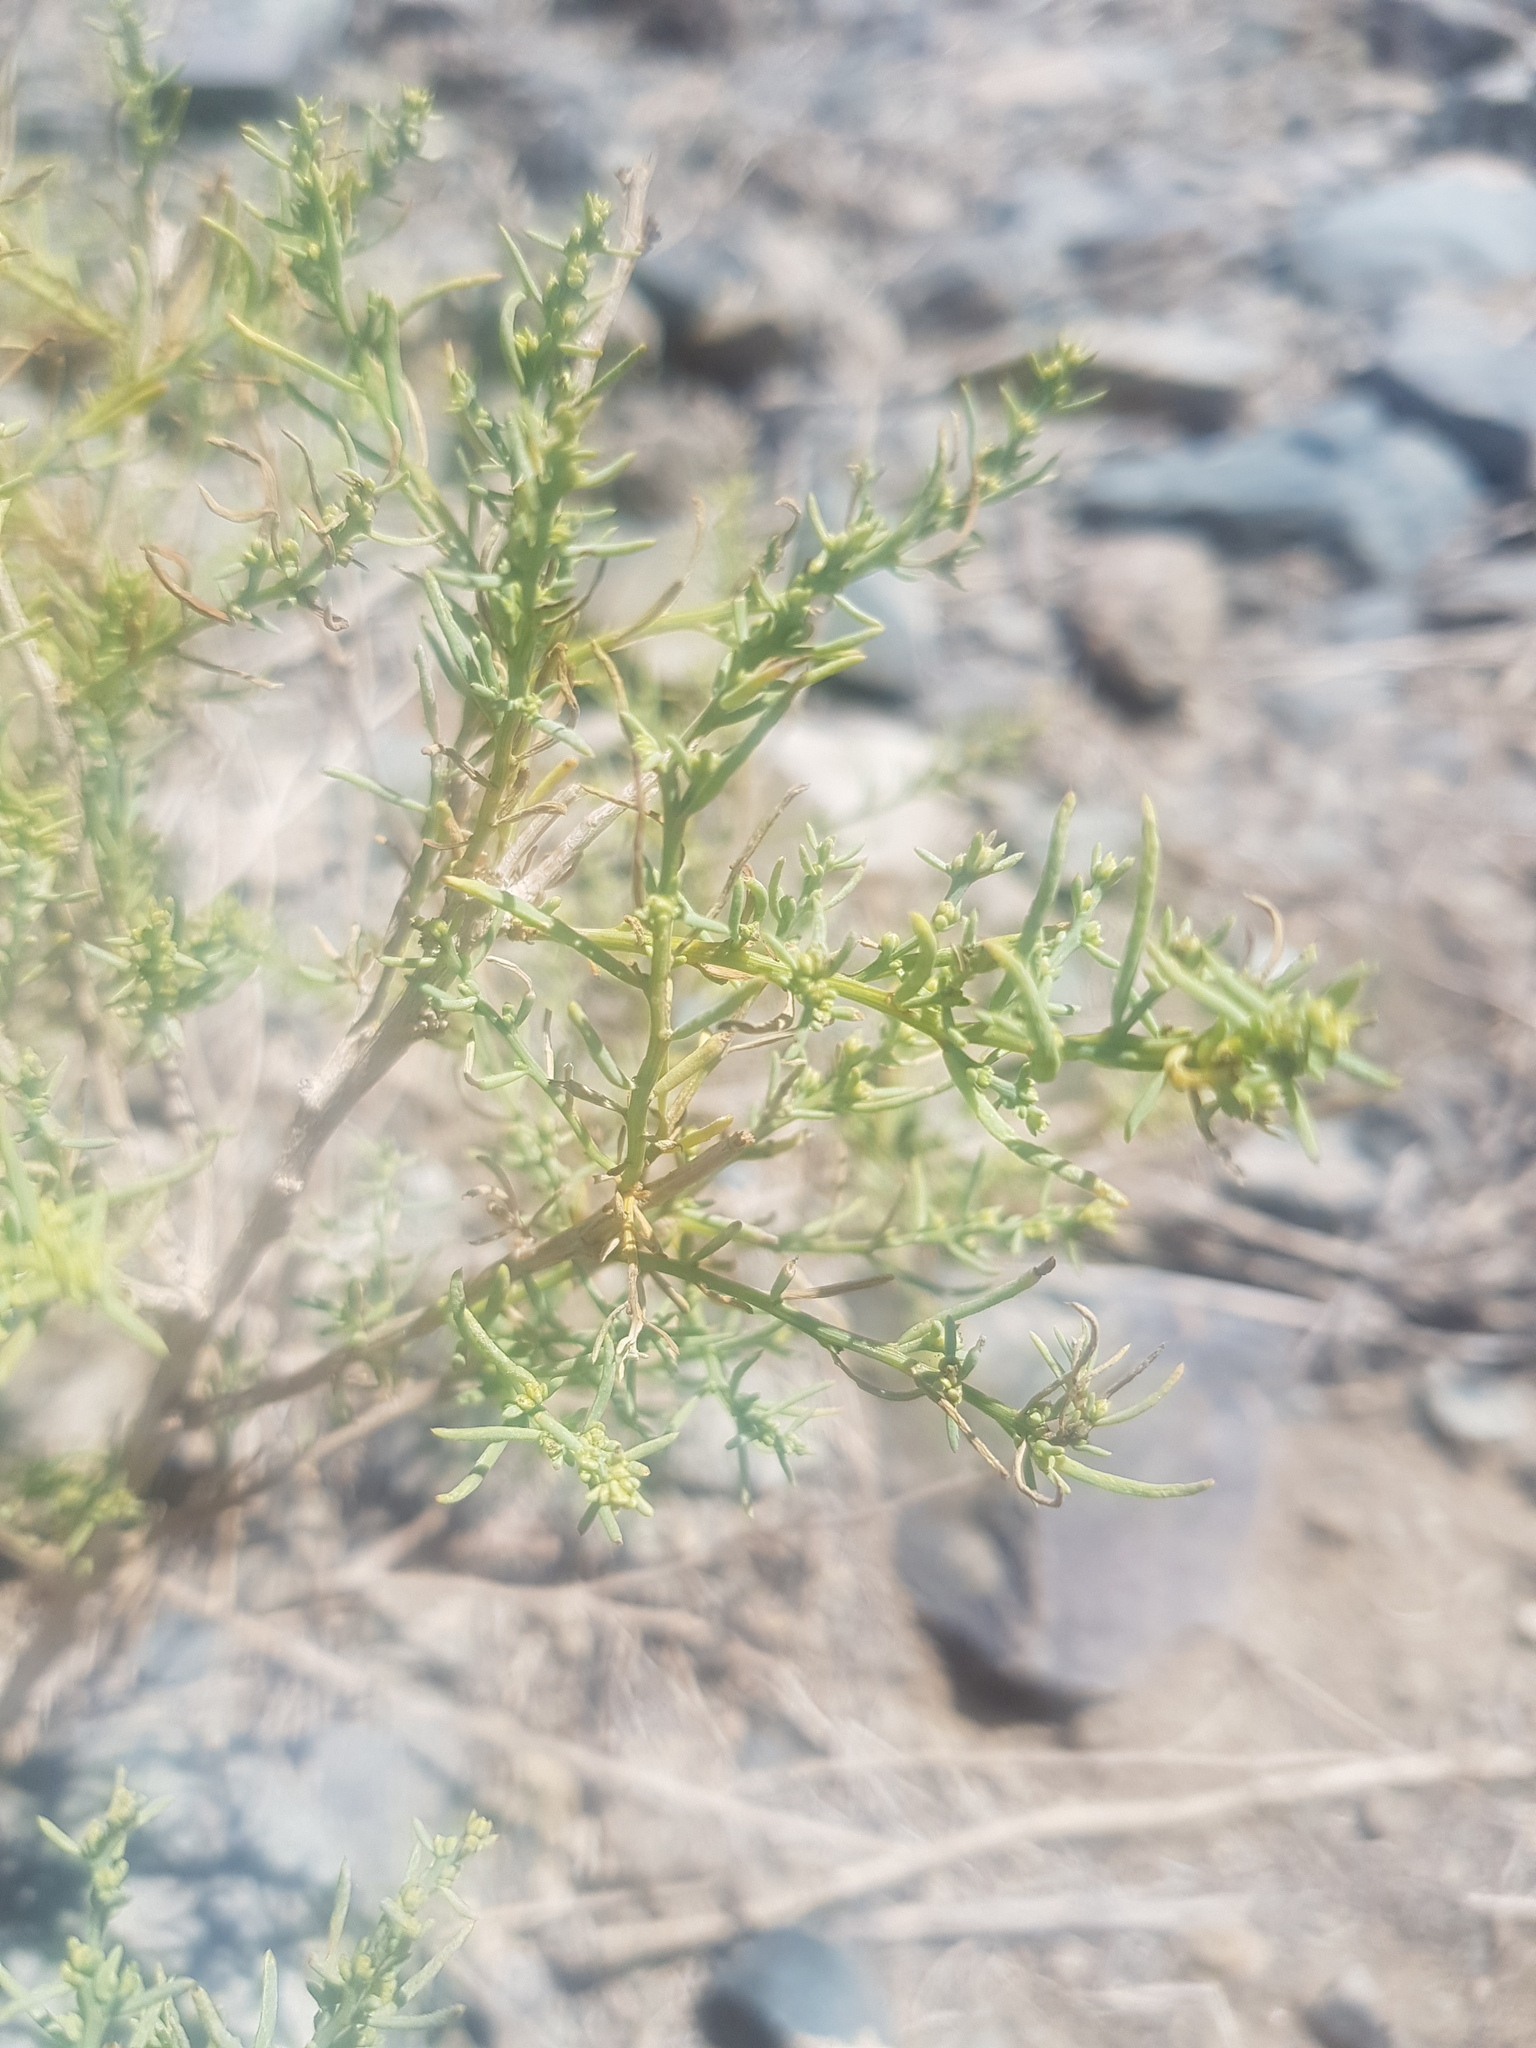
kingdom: Plantae
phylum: Tracheophyta
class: Magnoliopsida
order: Caryophyllales
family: Amaranthaceae
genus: Sympegma
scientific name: Sympegma regelii
